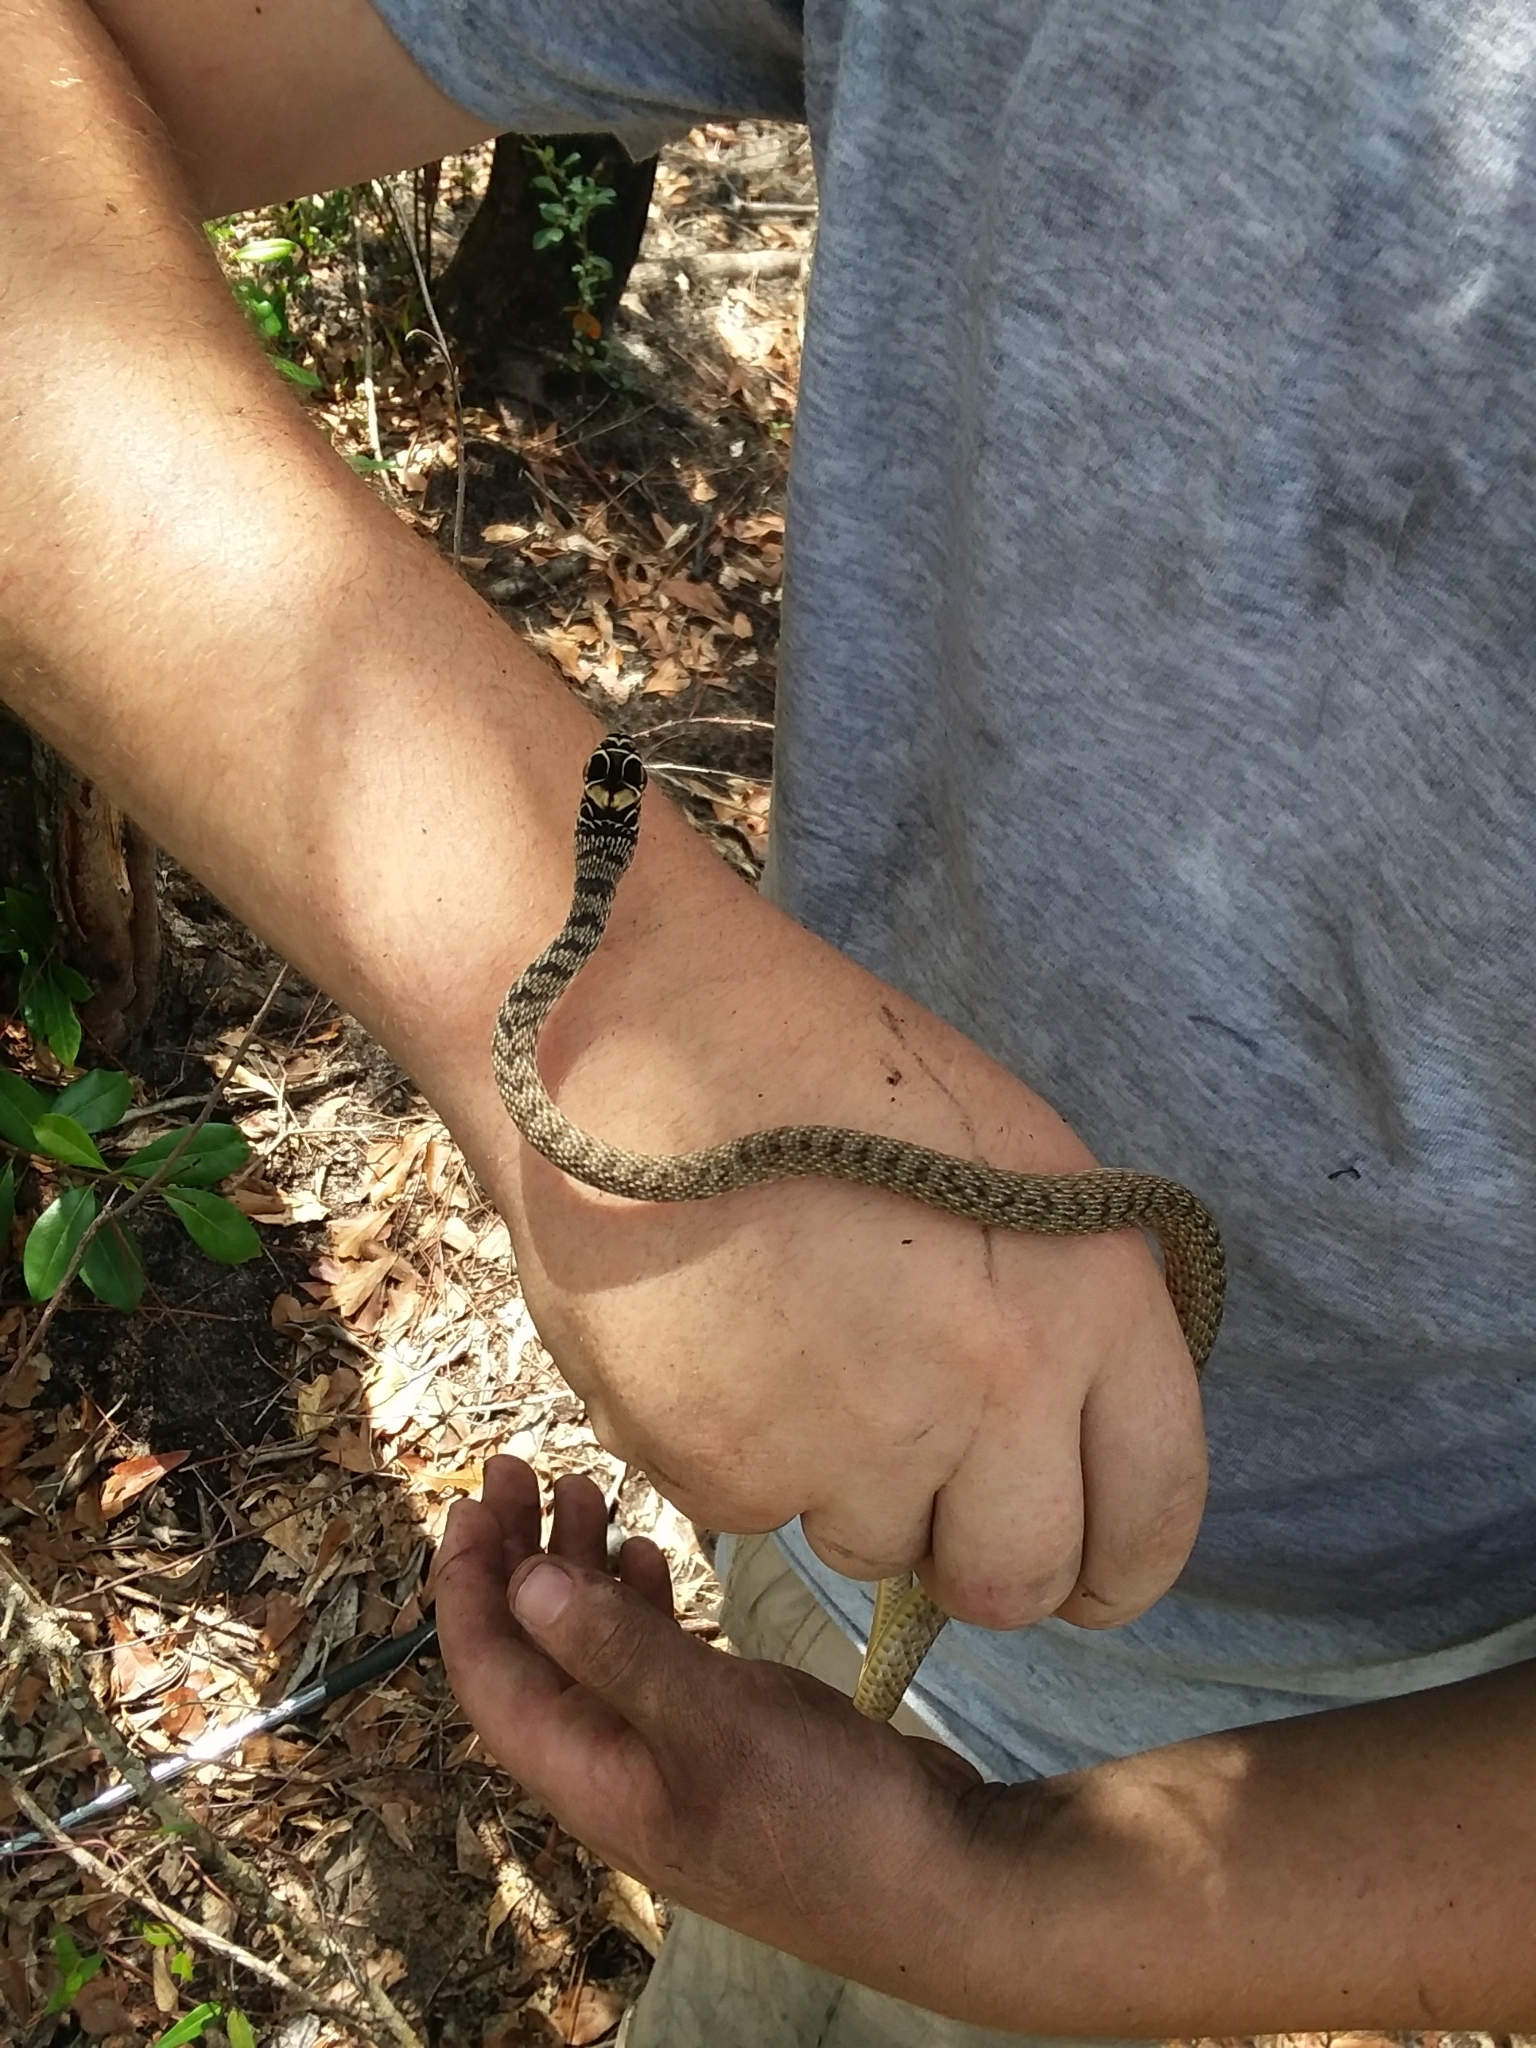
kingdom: Animalia
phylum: Chordata
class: Squamata
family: Colubridae
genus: Masticophis
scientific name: Masticophis flagellum
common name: Coachwhip
